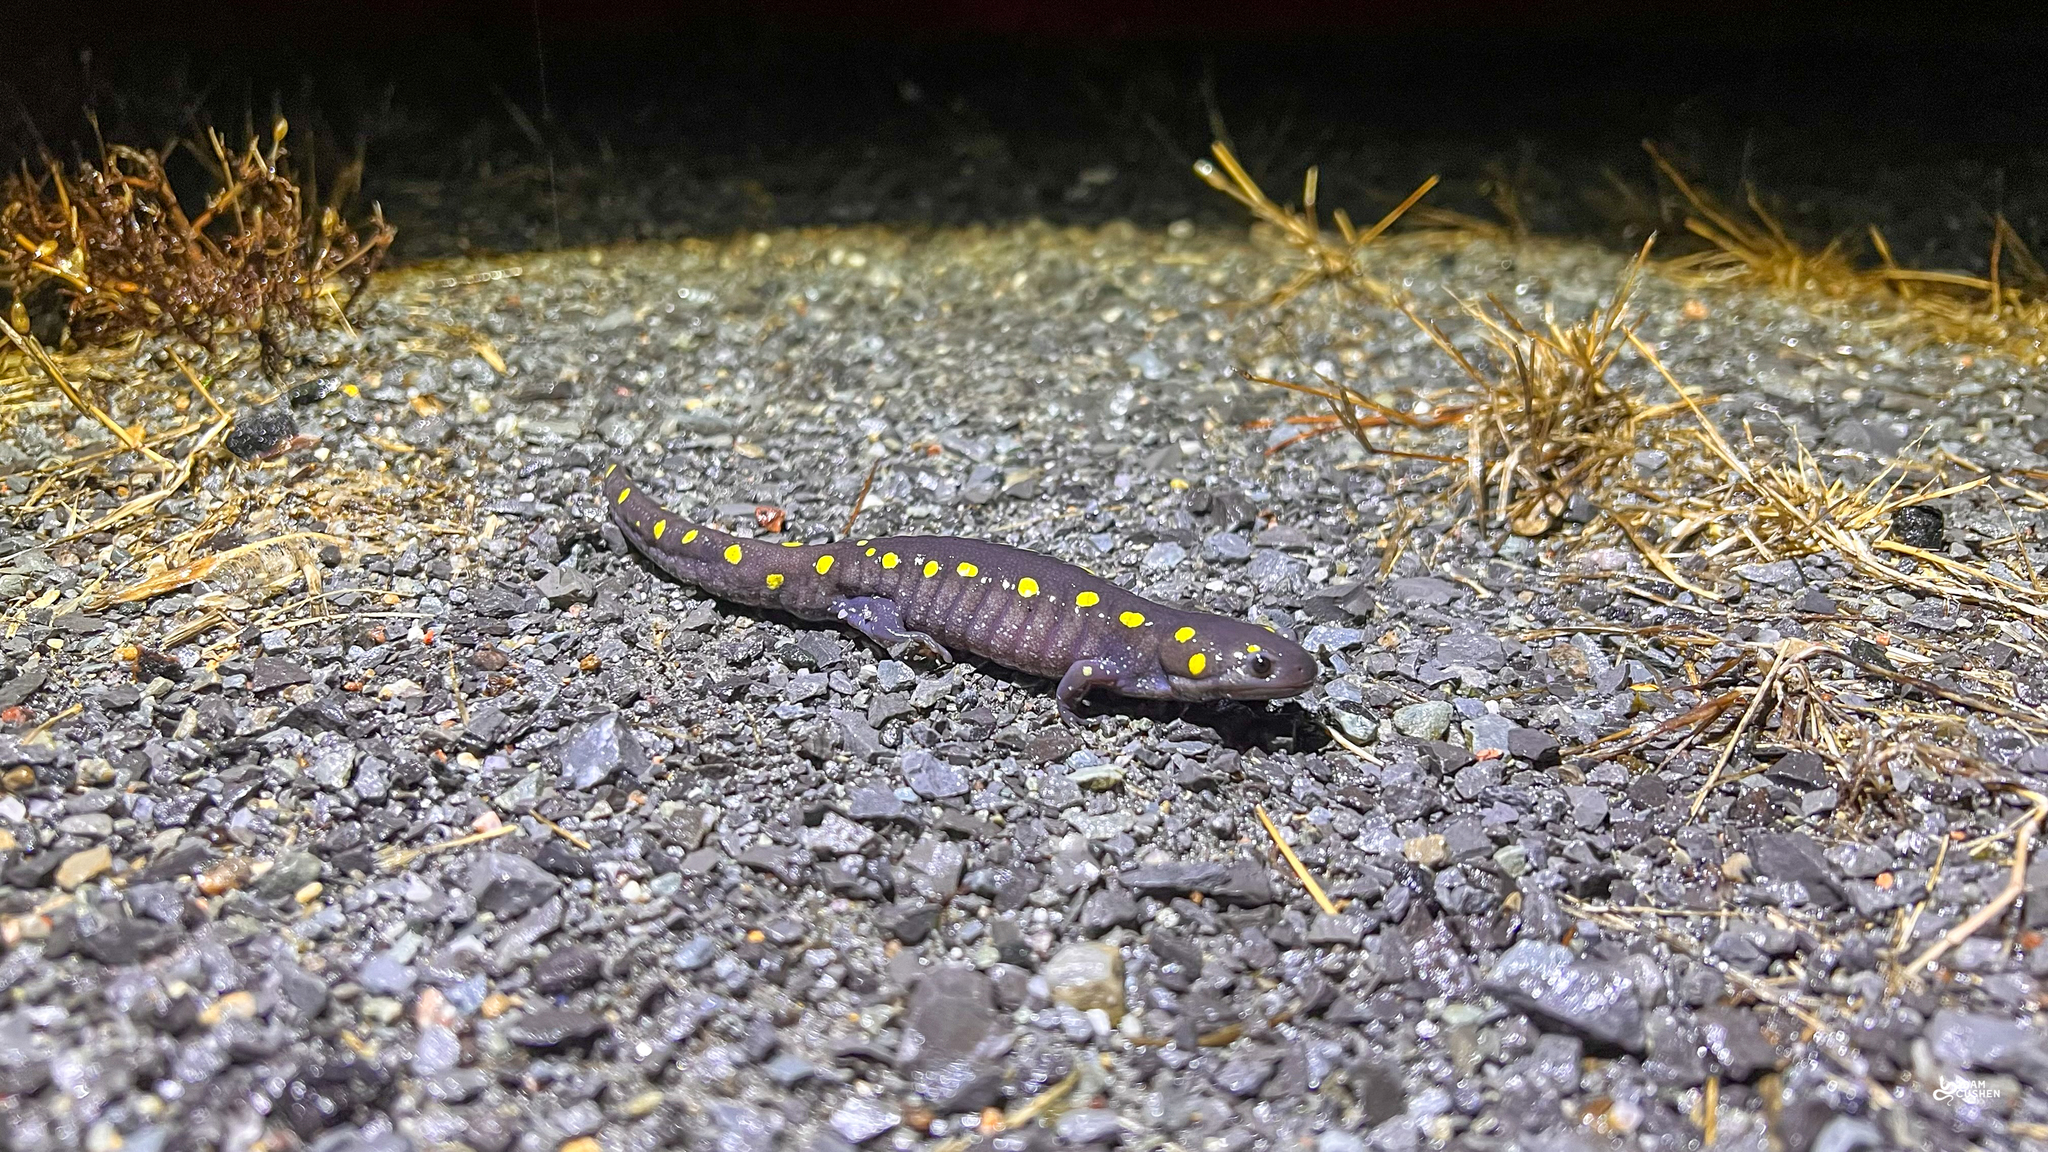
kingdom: Animalia
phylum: Chordata
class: Amphibia
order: Caudata
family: Ambystomatidae
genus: Ambystoma
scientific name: Ambystoma maculatum
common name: Spotted salamander
